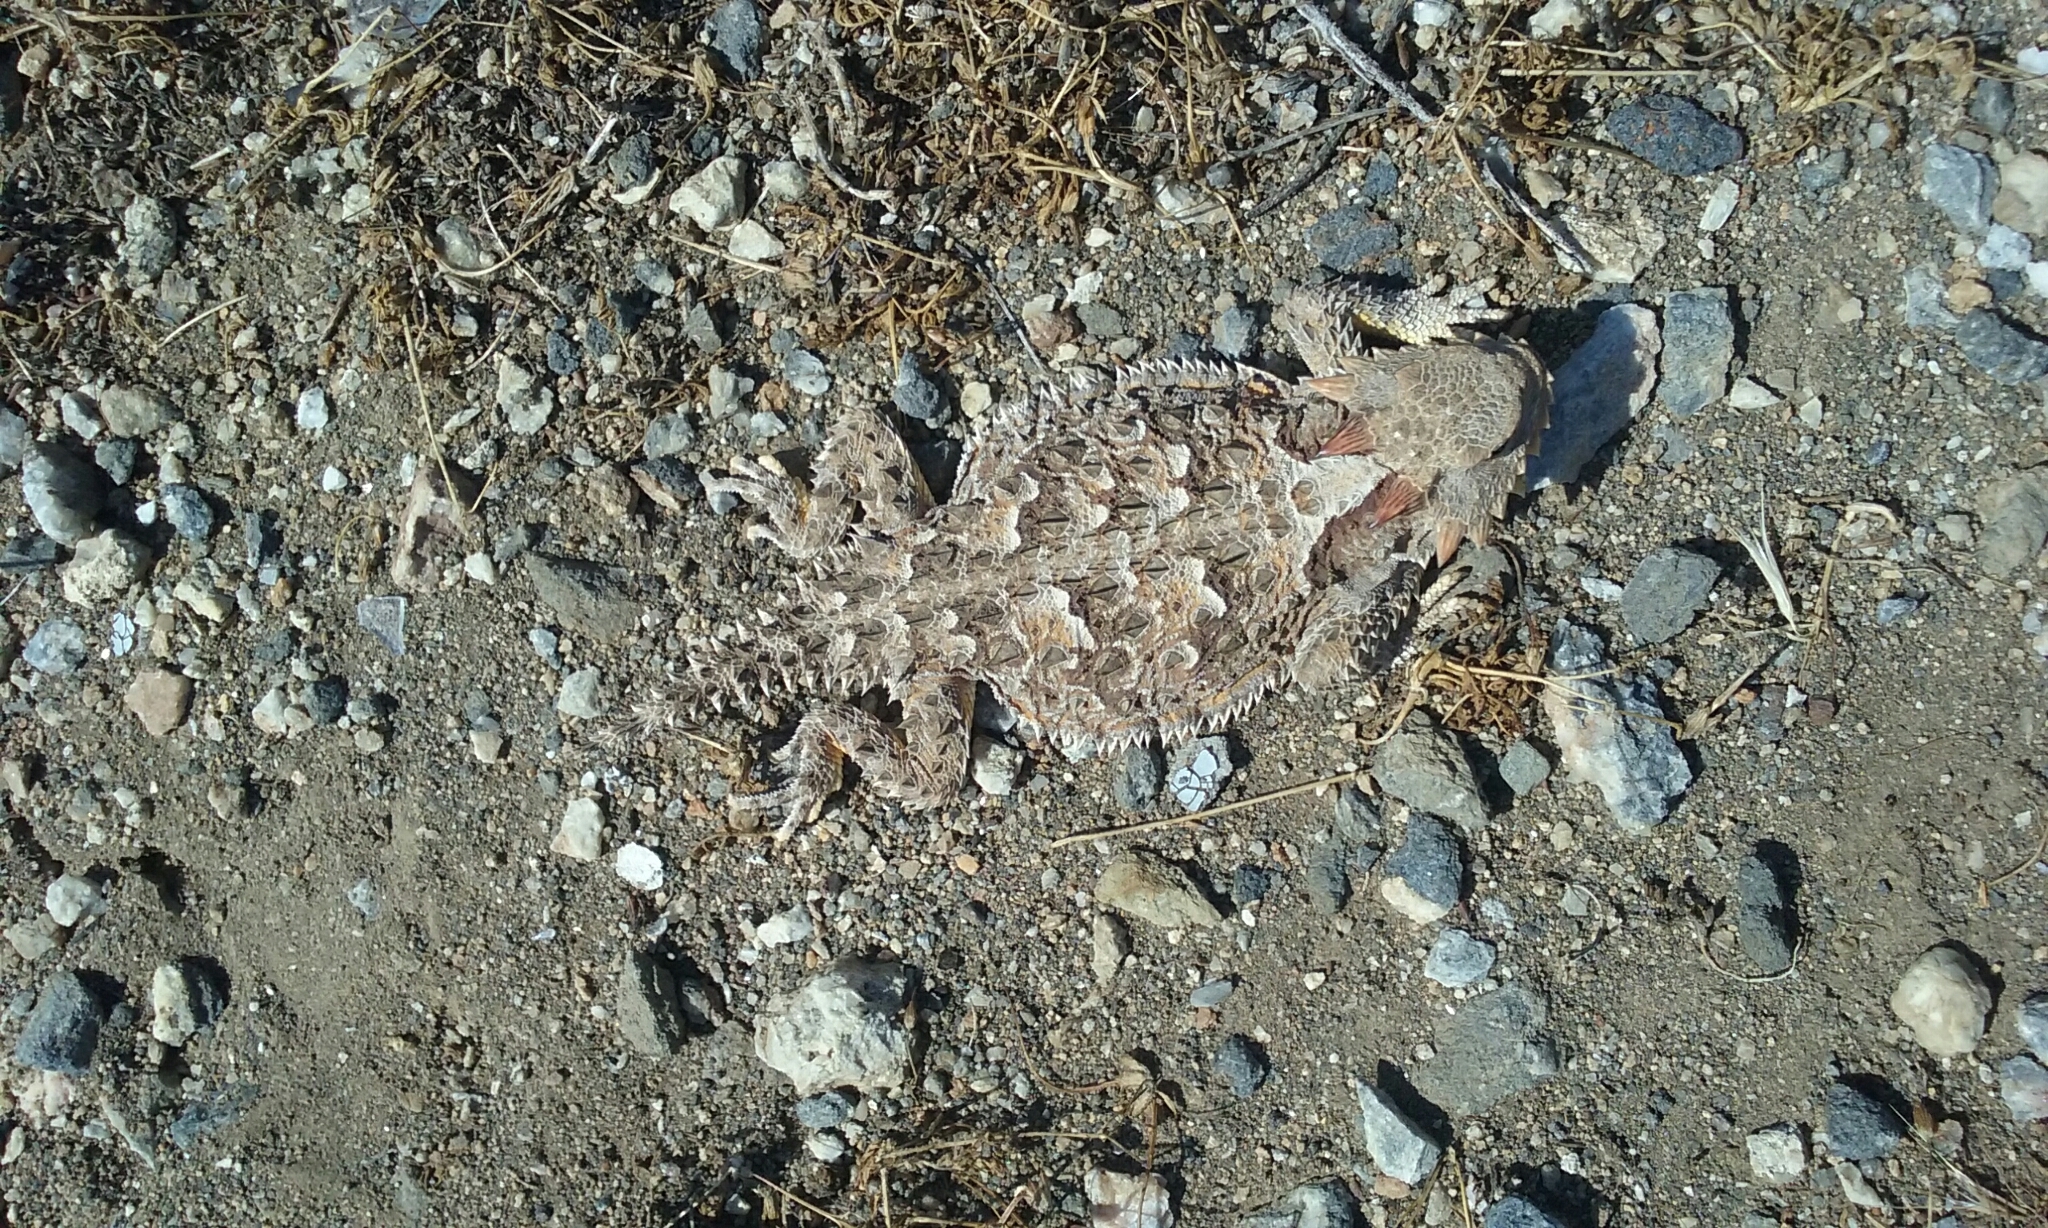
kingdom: Animalia
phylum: Chordata
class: Squamata
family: Phrynosomatidae
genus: Phrynosoma
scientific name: Phrynosoma blainvillii
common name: San diego horned lizard
